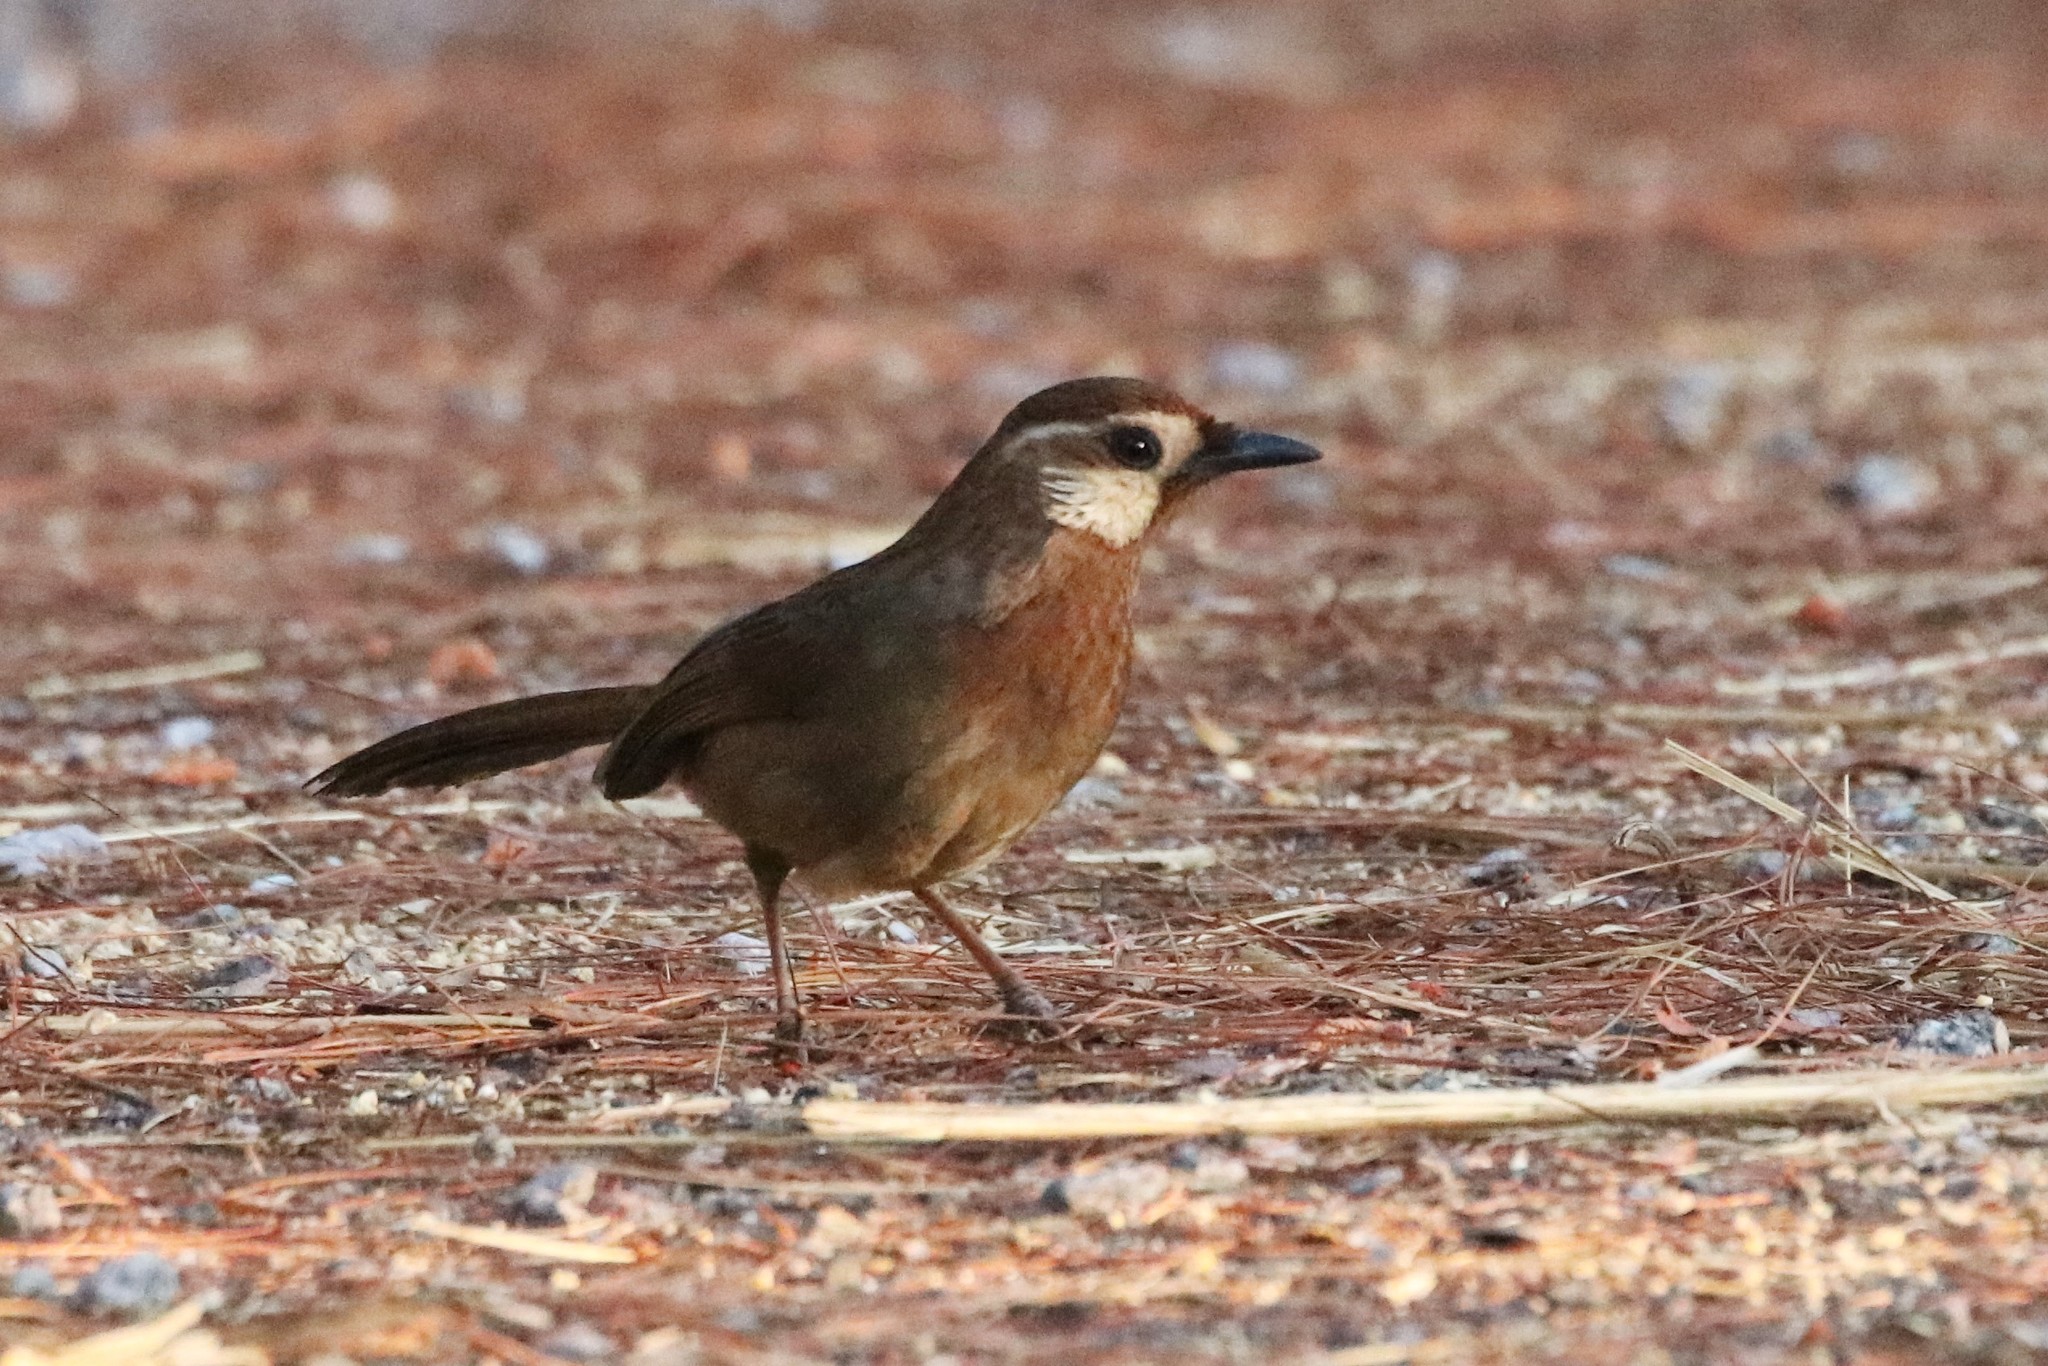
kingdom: Animalia
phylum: Chordata
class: Aves
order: Passeriformes
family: Leiothrichidae
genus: Pterorhinus
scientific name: Pterorhinus sannio
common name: White-browed laughingthrush
